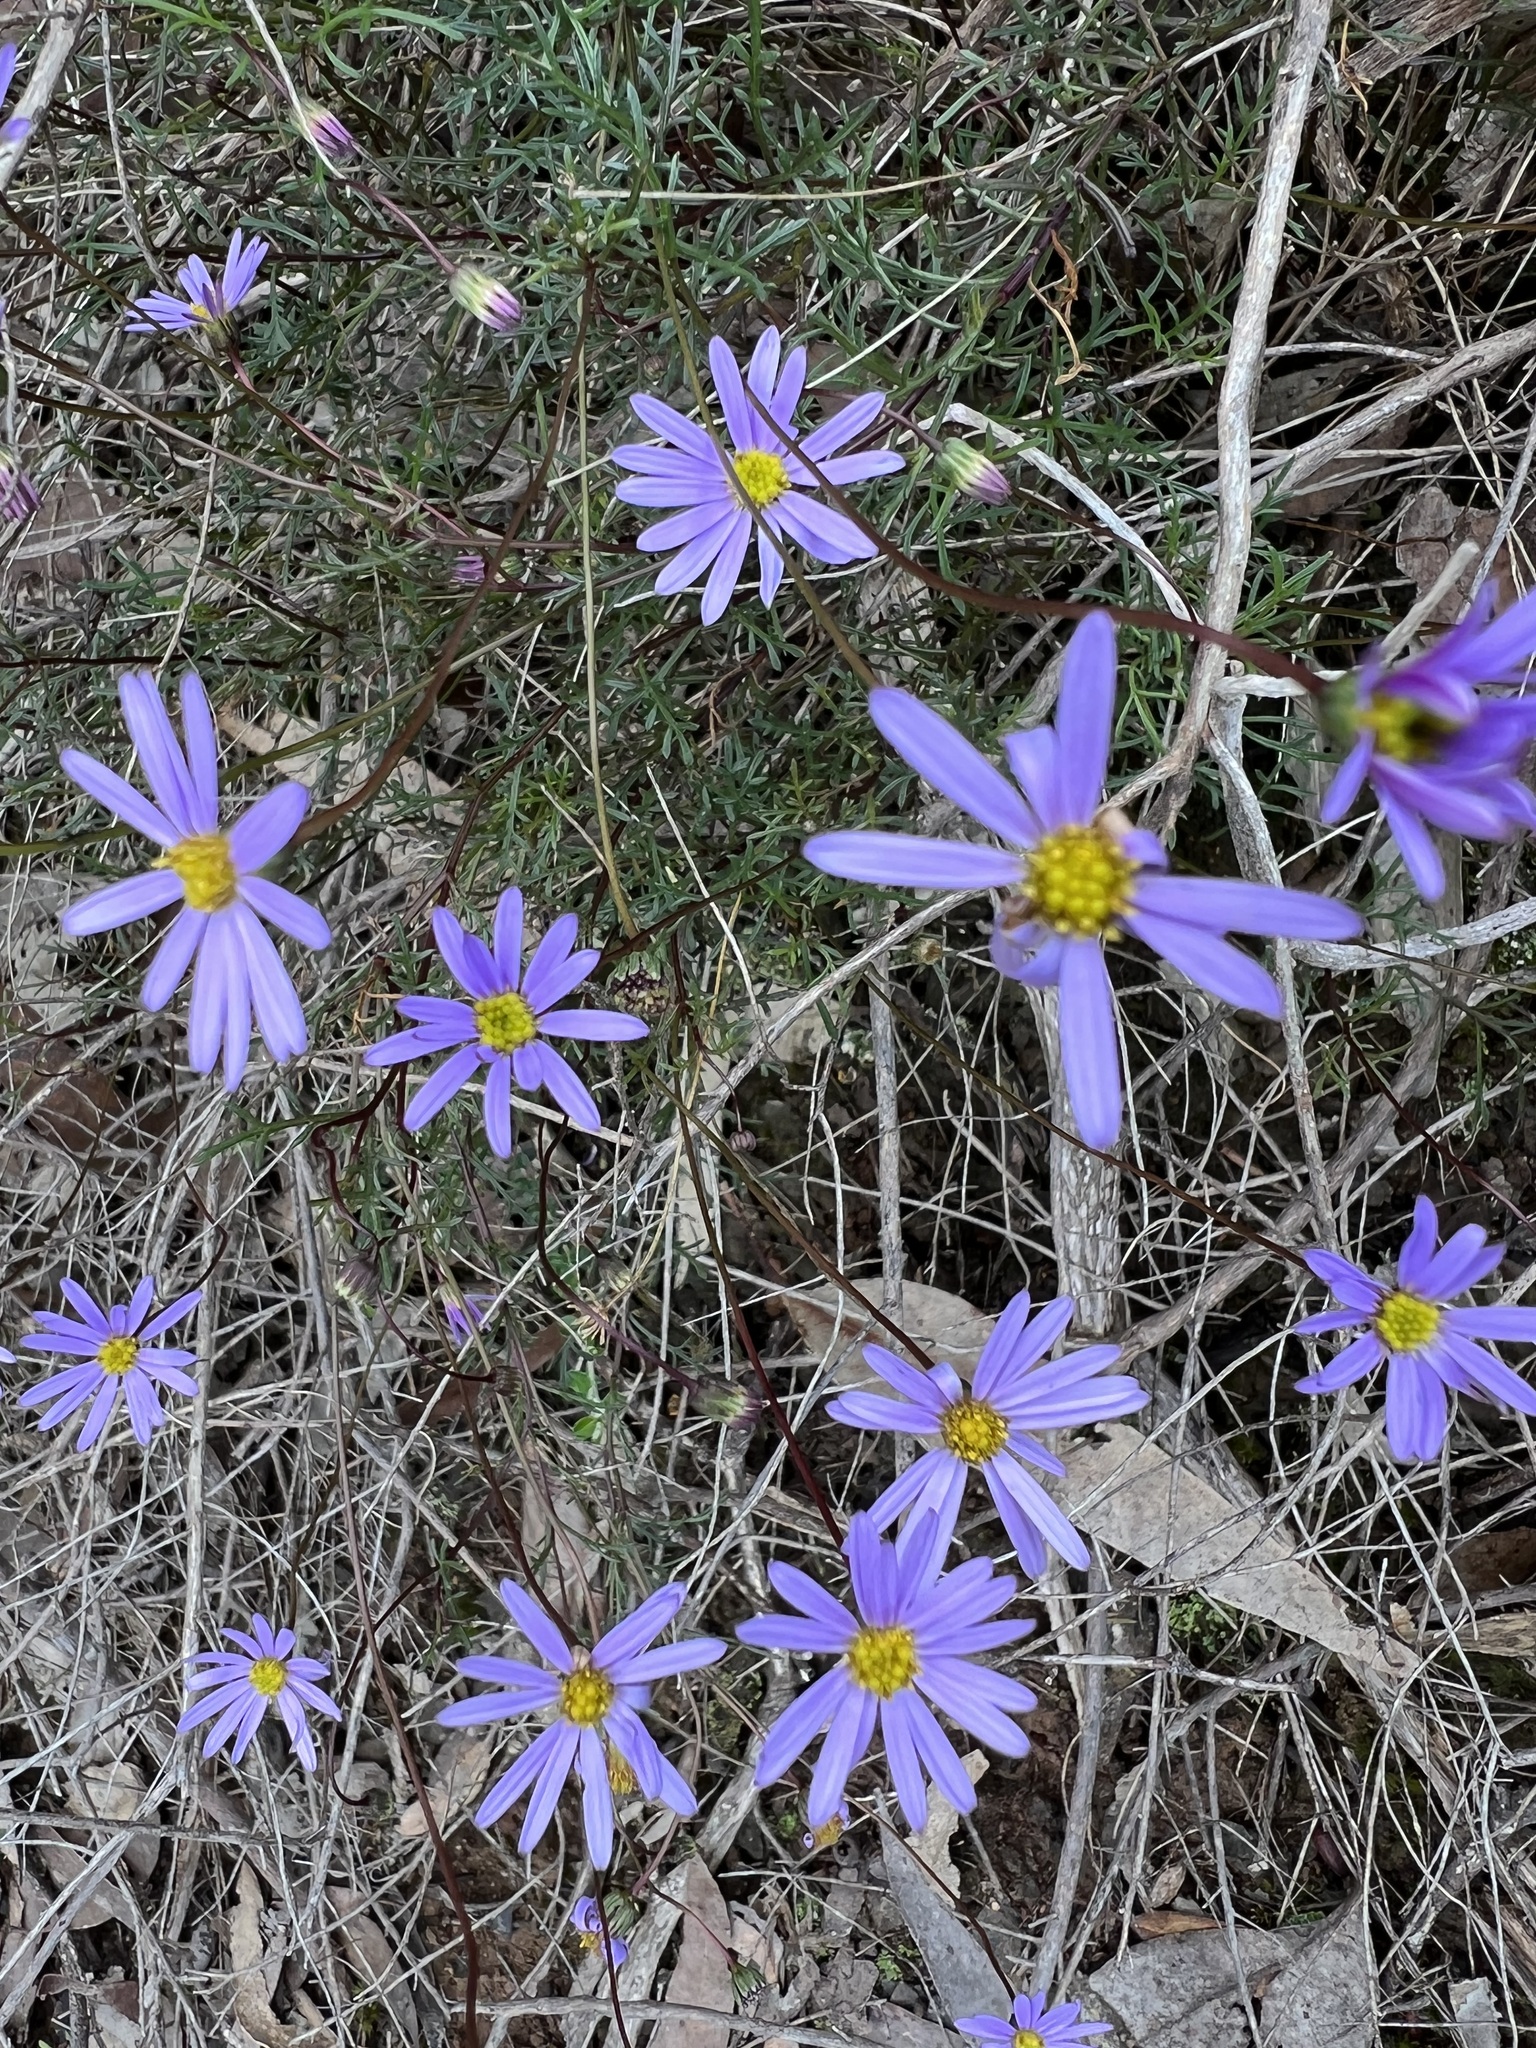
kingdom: Plantae
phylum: Tracheophyta
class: Magnoliopsida
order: Asterales
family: Asteraceae
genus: Brachyscome
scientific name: Brachyscome multifida
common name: Cut-leaf daisy
